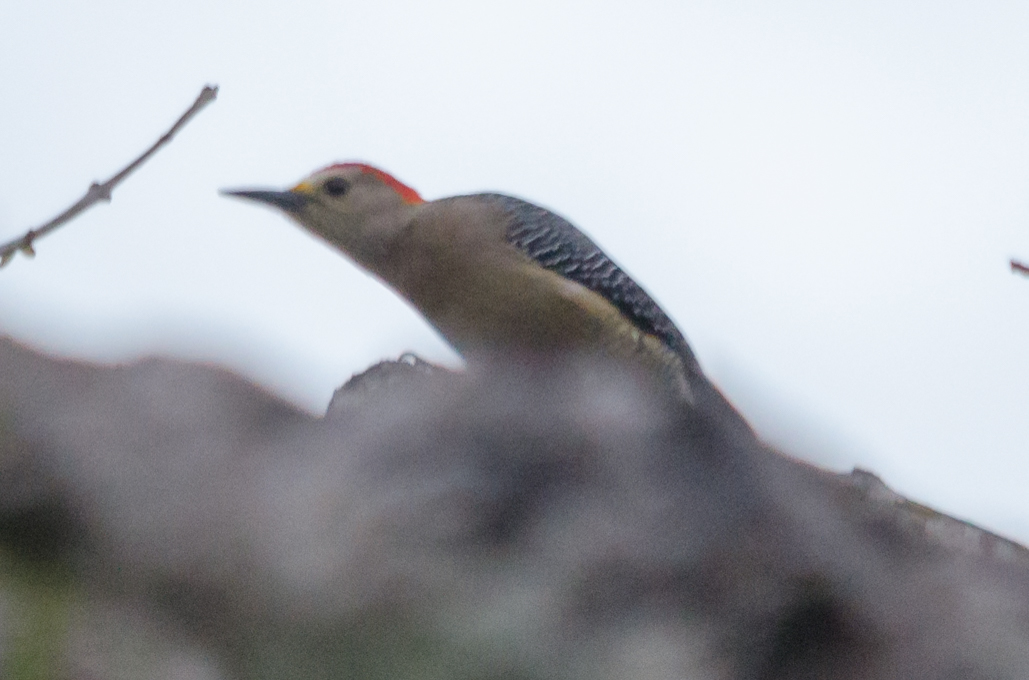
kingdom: Animalia
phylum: Chordata
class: Aves
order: Piciformes
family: Picidae
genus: Melanerpes
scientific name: Melanerpes aurifrons
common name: Golden-fronted woodpecker
